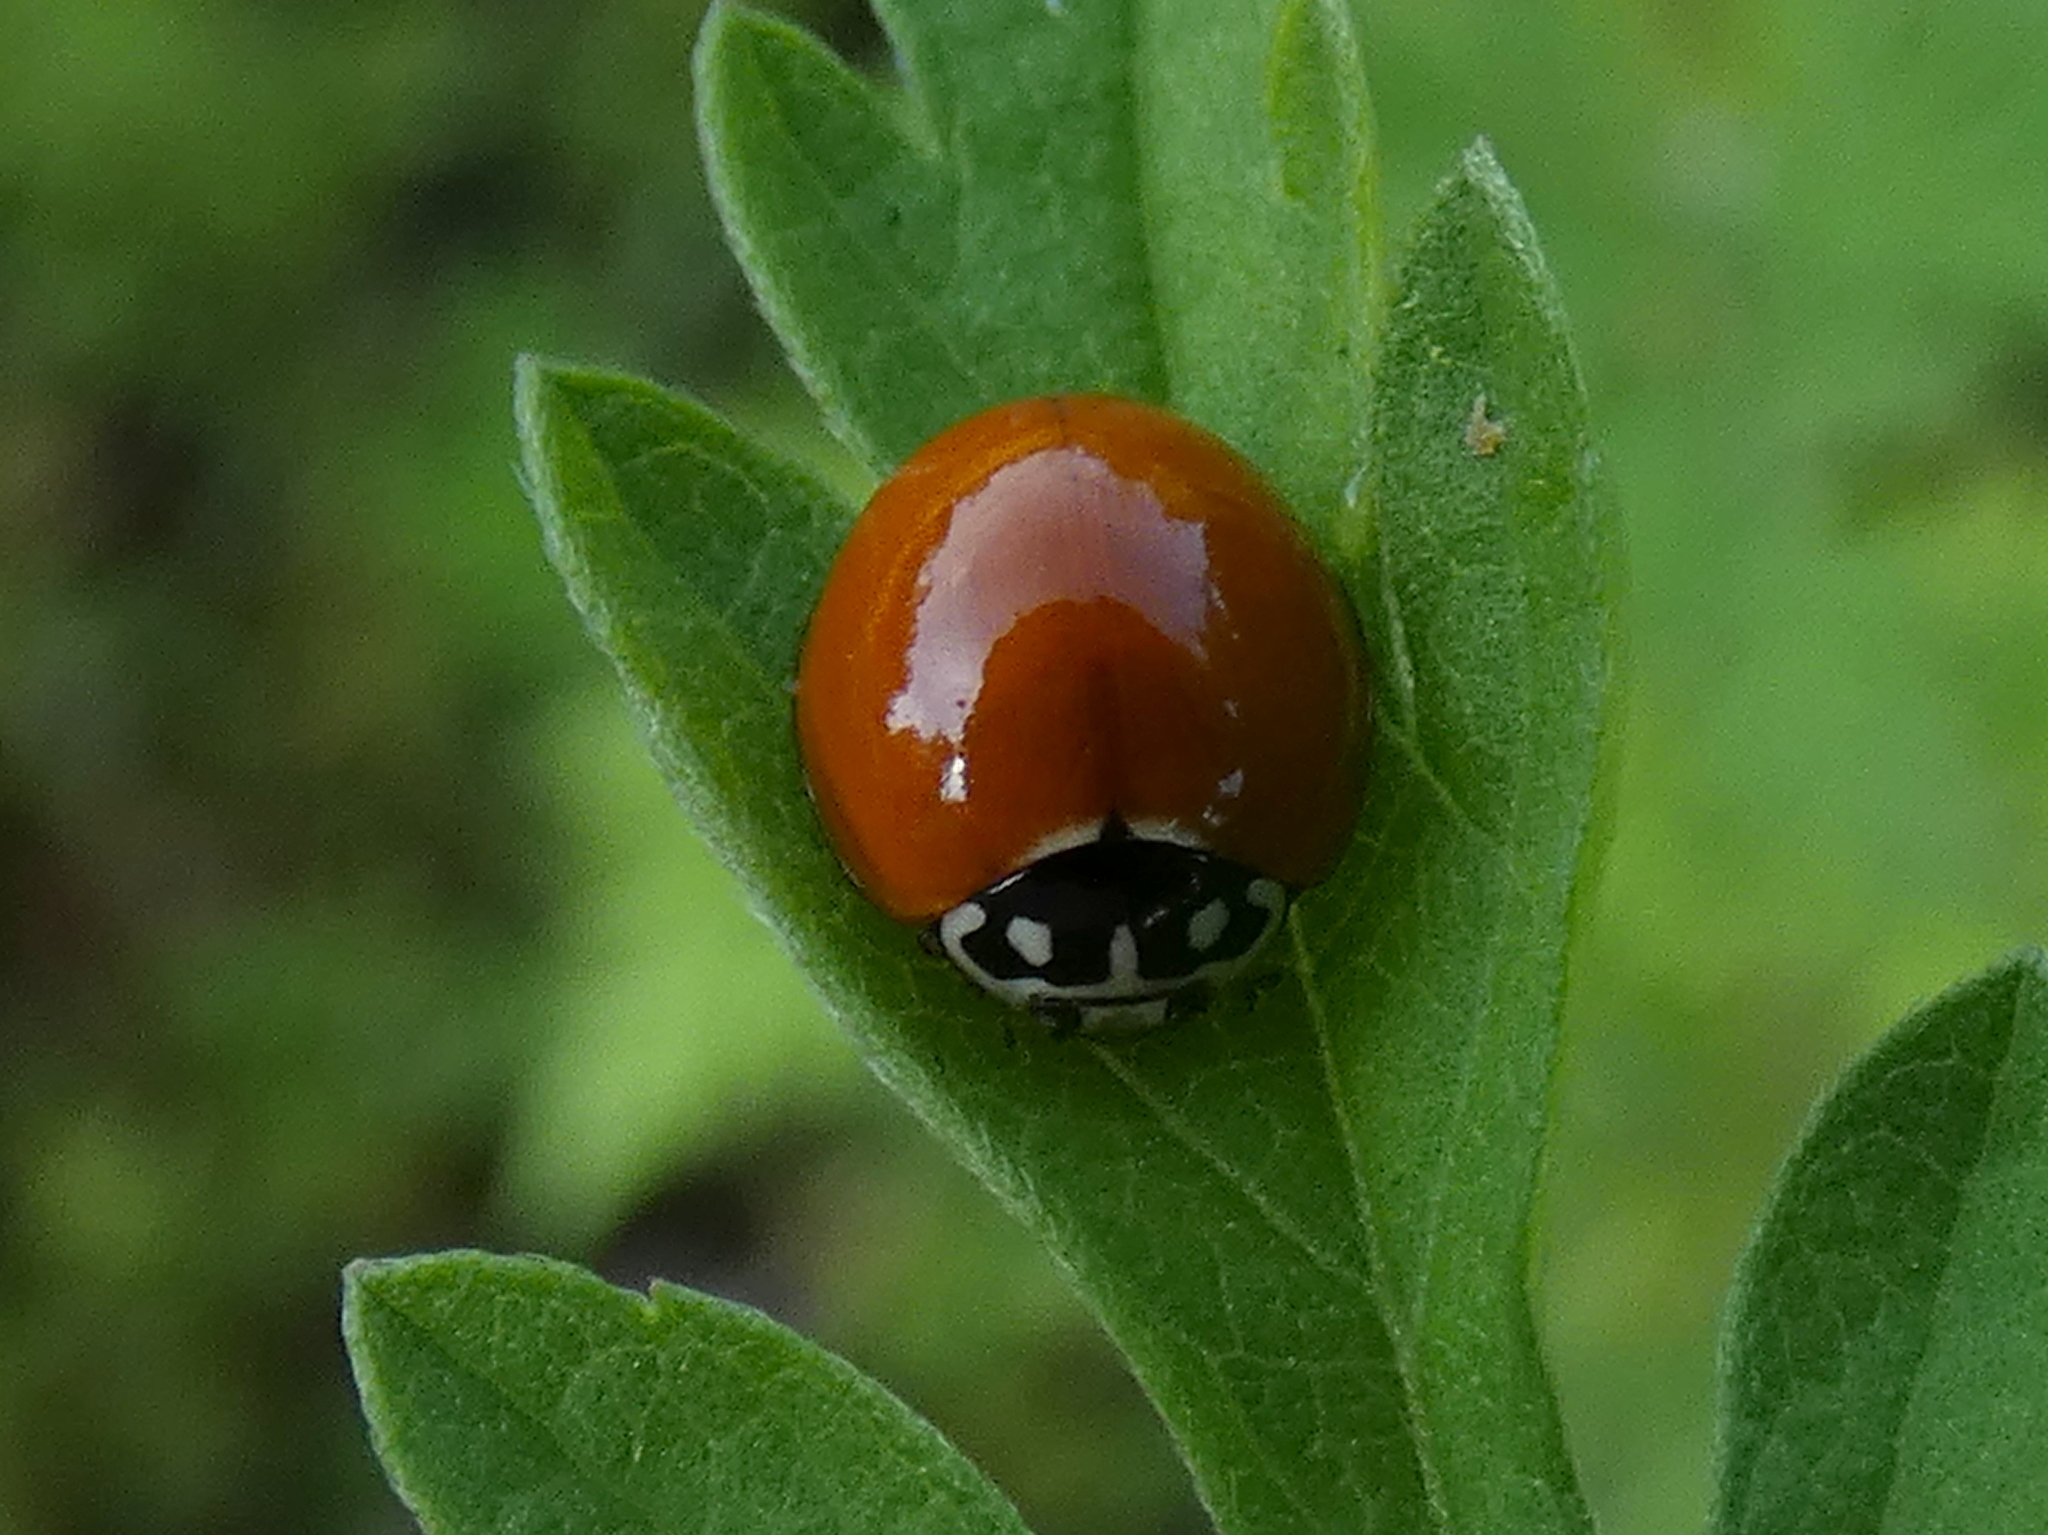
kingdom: Animalia
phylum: Arthropoda
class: Insecta
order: Coleoptera
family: Coccinellidae
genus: Cycloneda
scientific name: Cycloneda sanguinea
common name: Ladybird beetle
